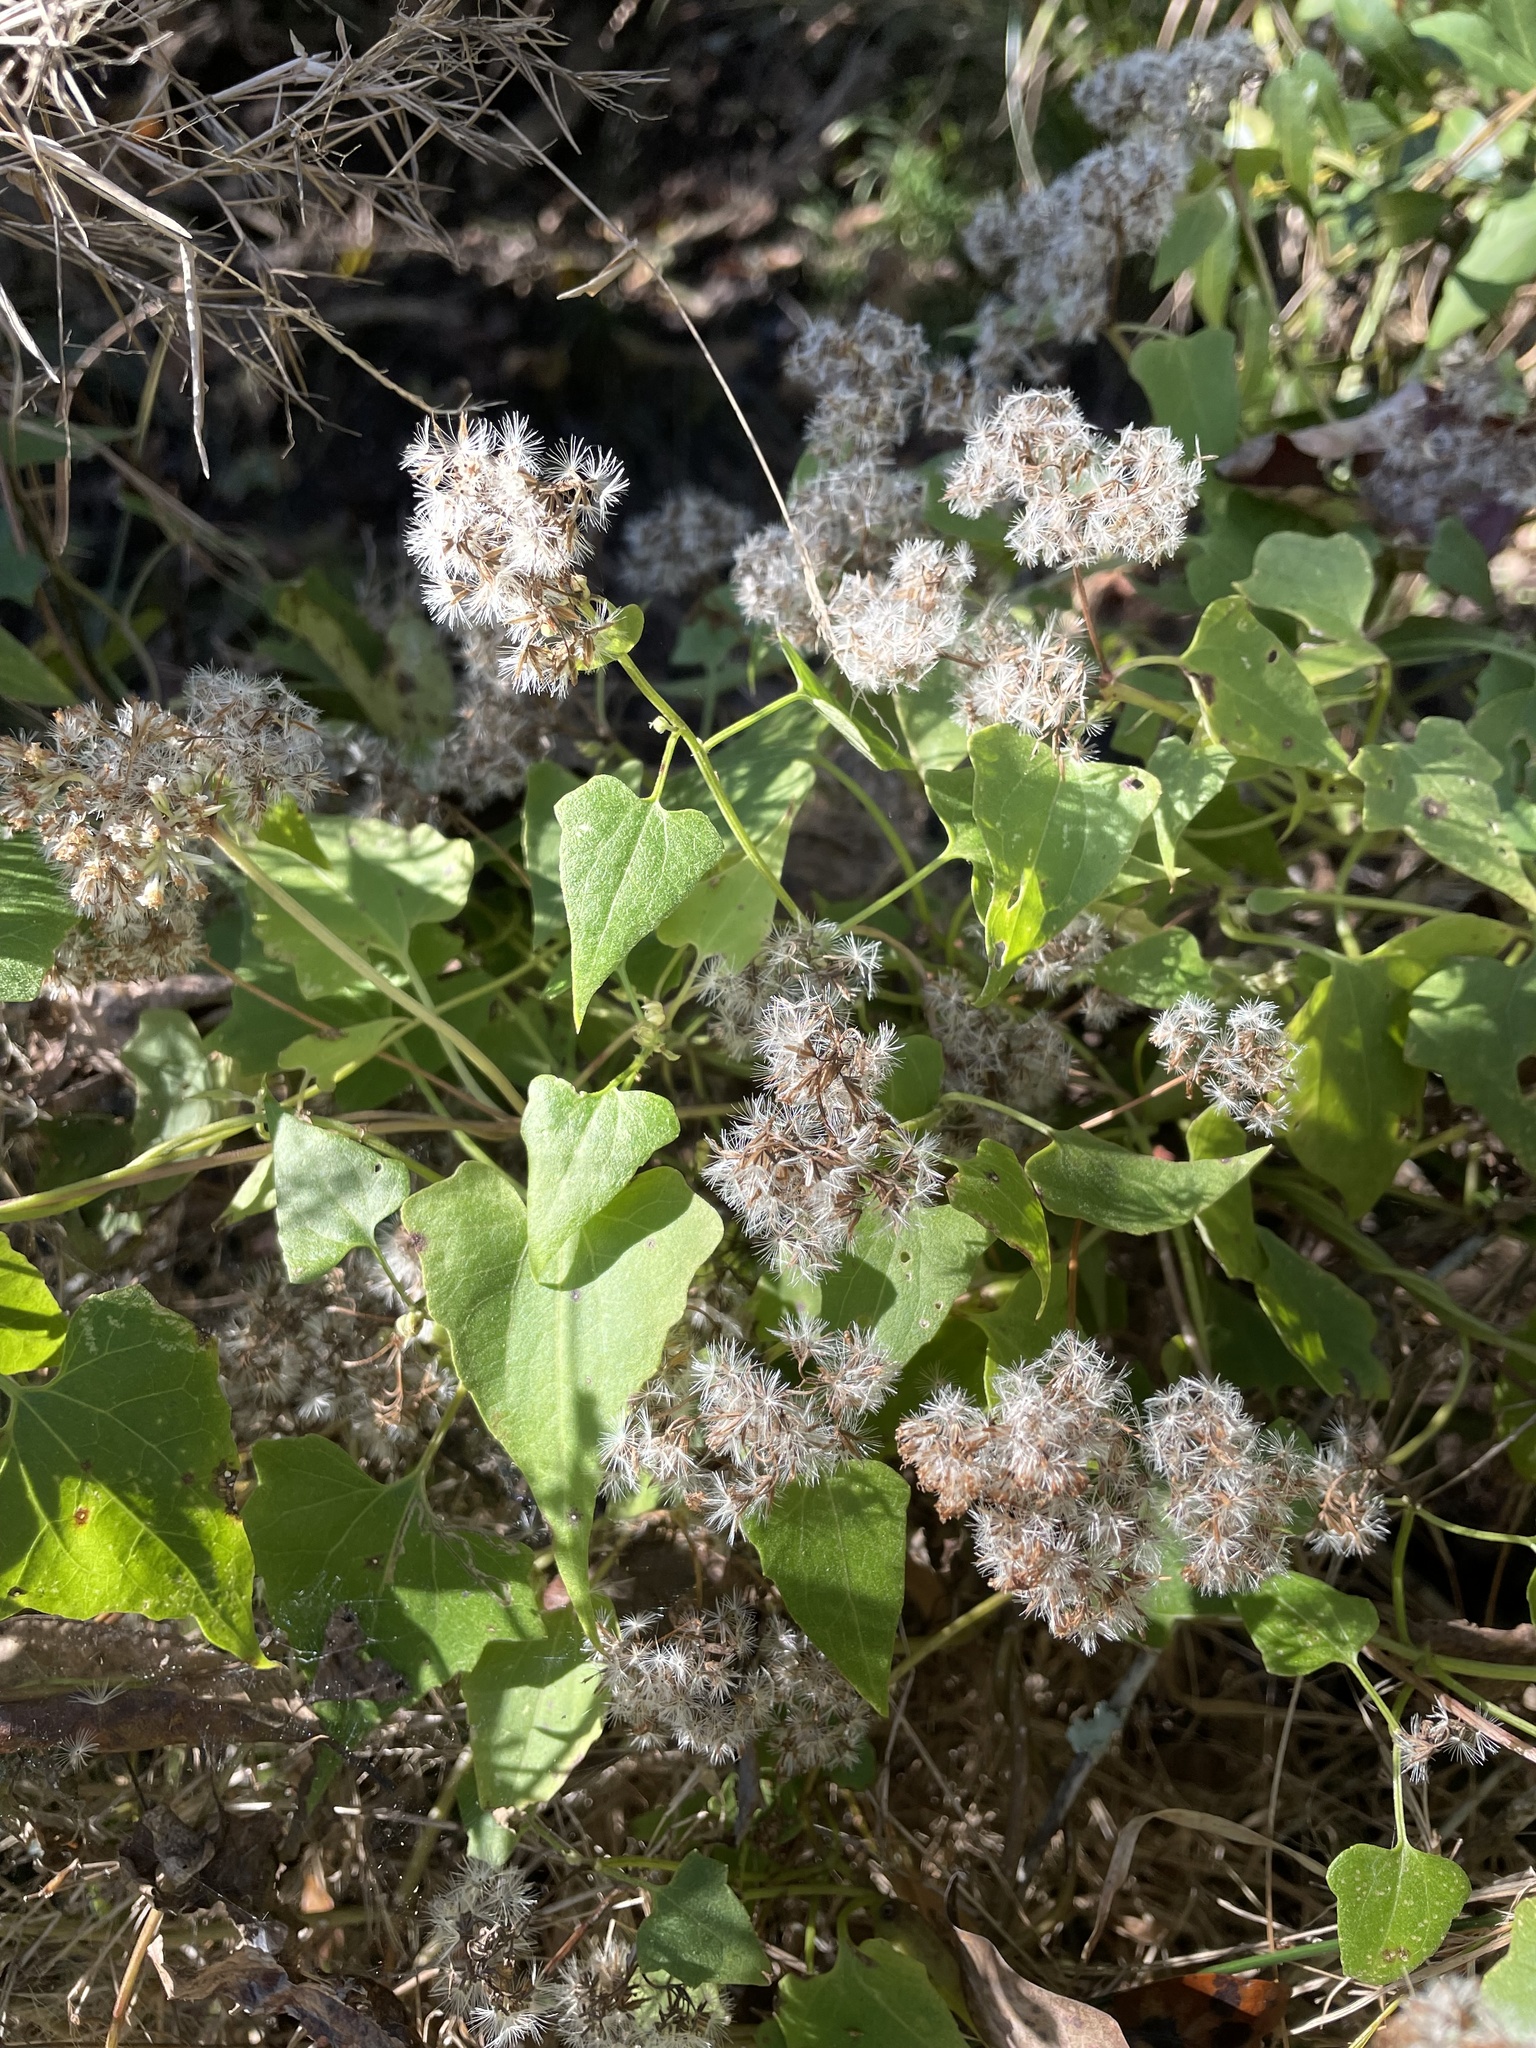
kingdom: Plantae
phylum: Tracheophyta
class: Magnoliopsida
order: Asterales
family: Asteraceae
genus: Mikania
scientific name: Mikania scandens
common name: Climbing hempvine
